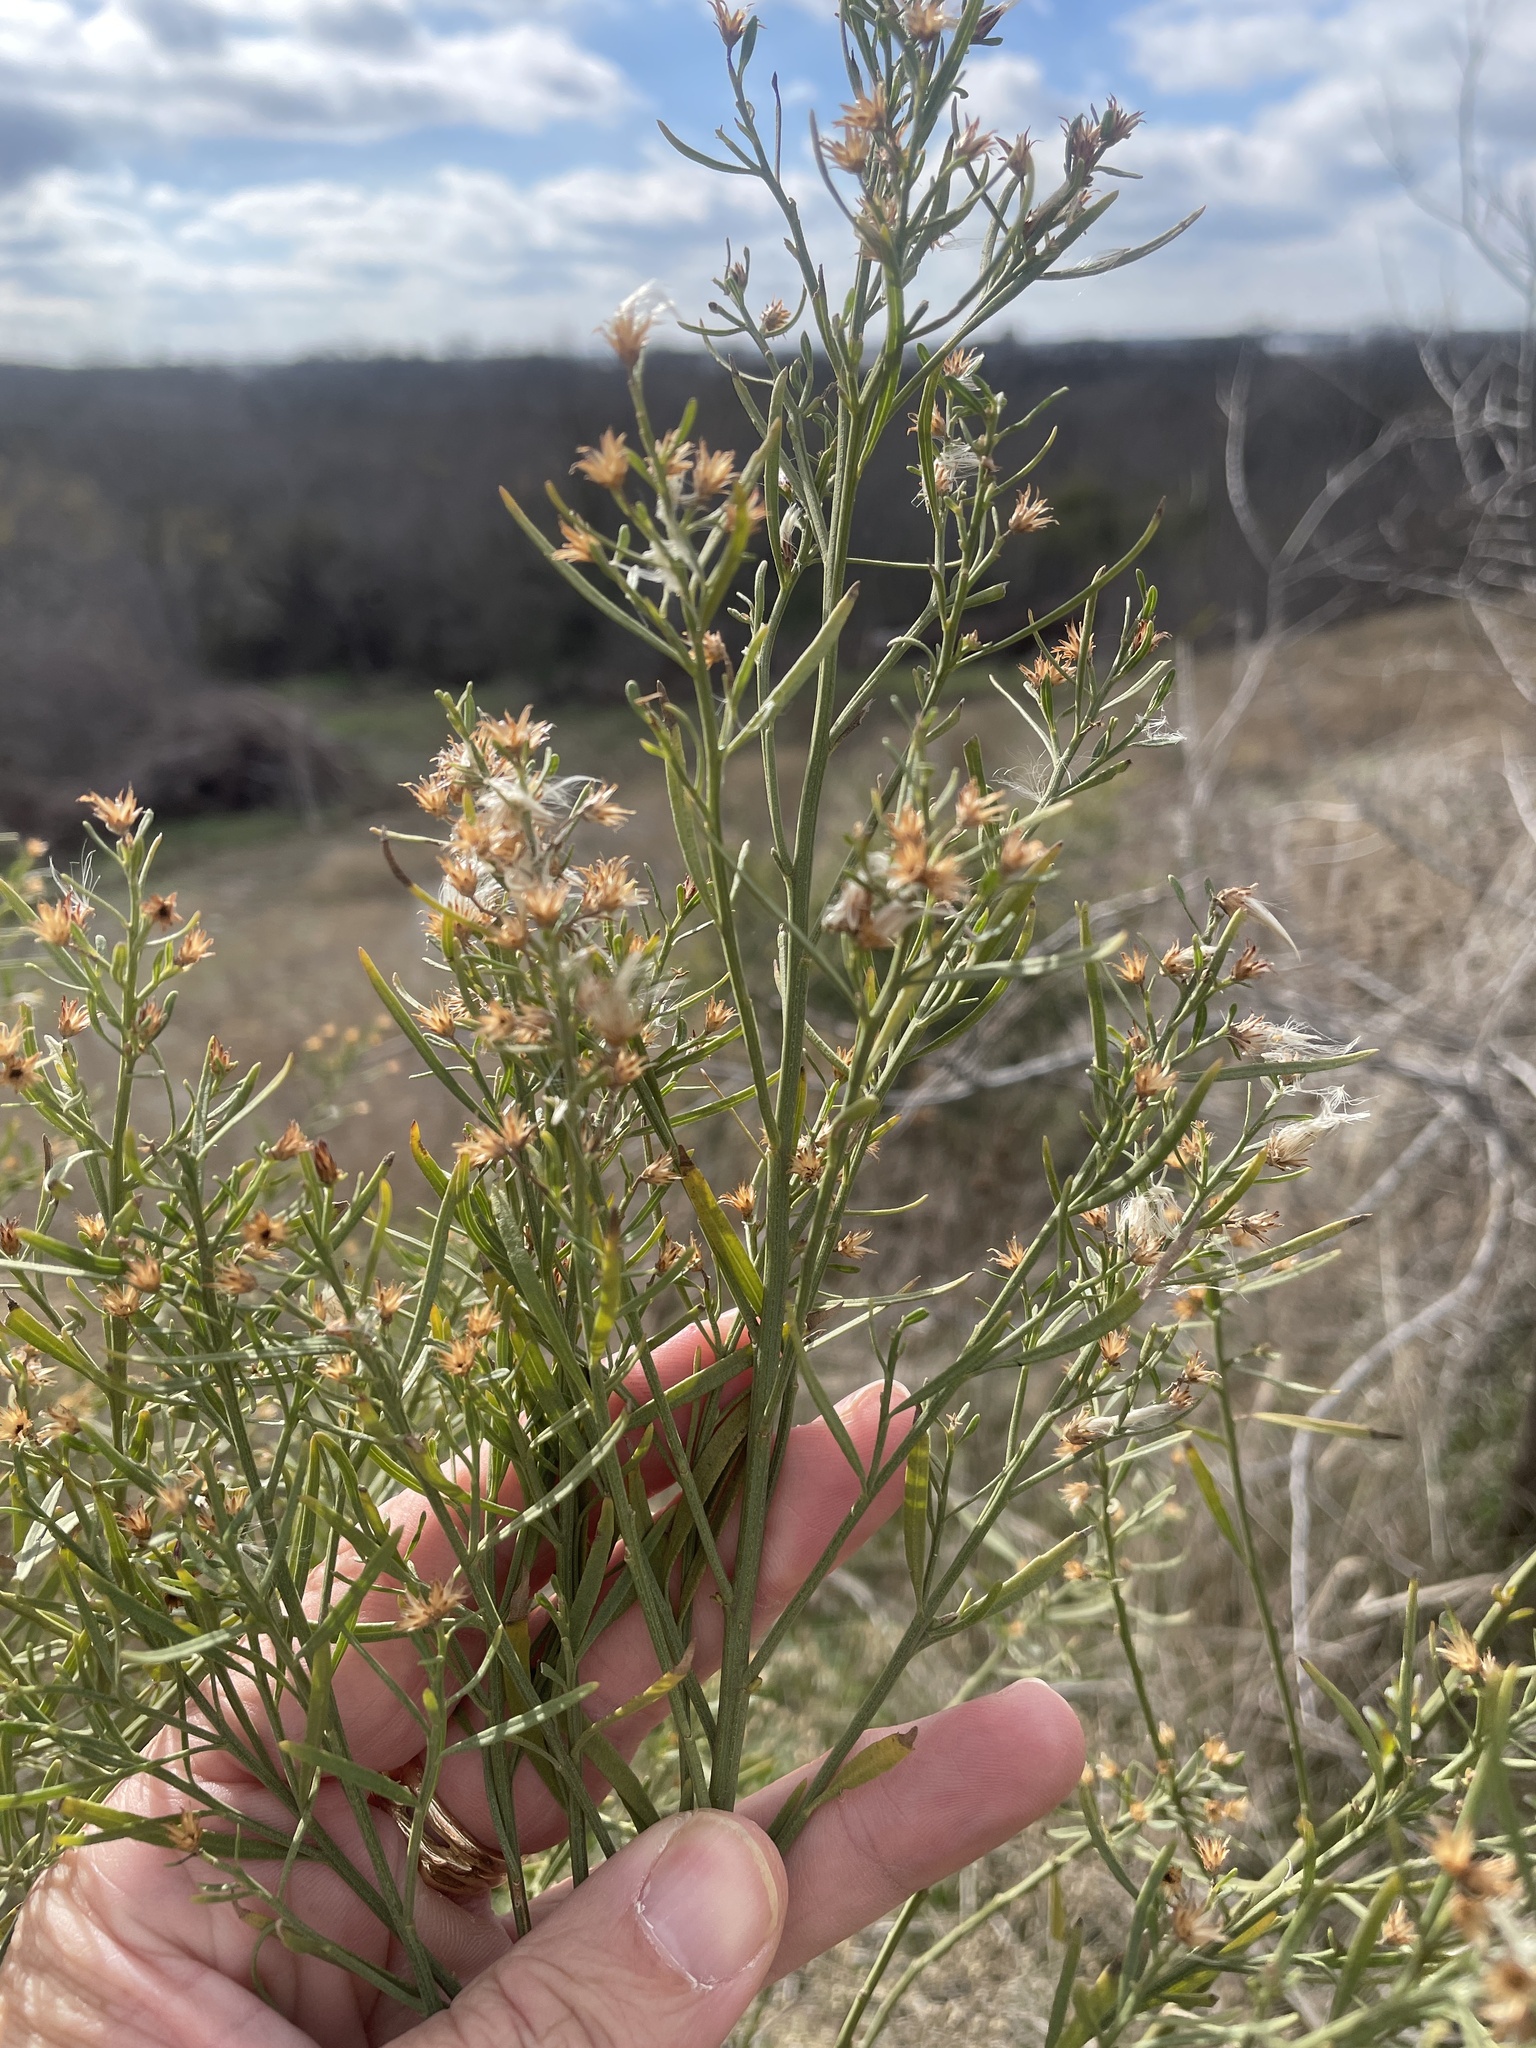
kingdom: Plantae
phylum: Tracheophyta
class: Magnoliopsida
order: Asterales
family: Asteraceae
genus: Baccharis
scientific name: Baccharis neglecta
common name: Roosevelt-weed
